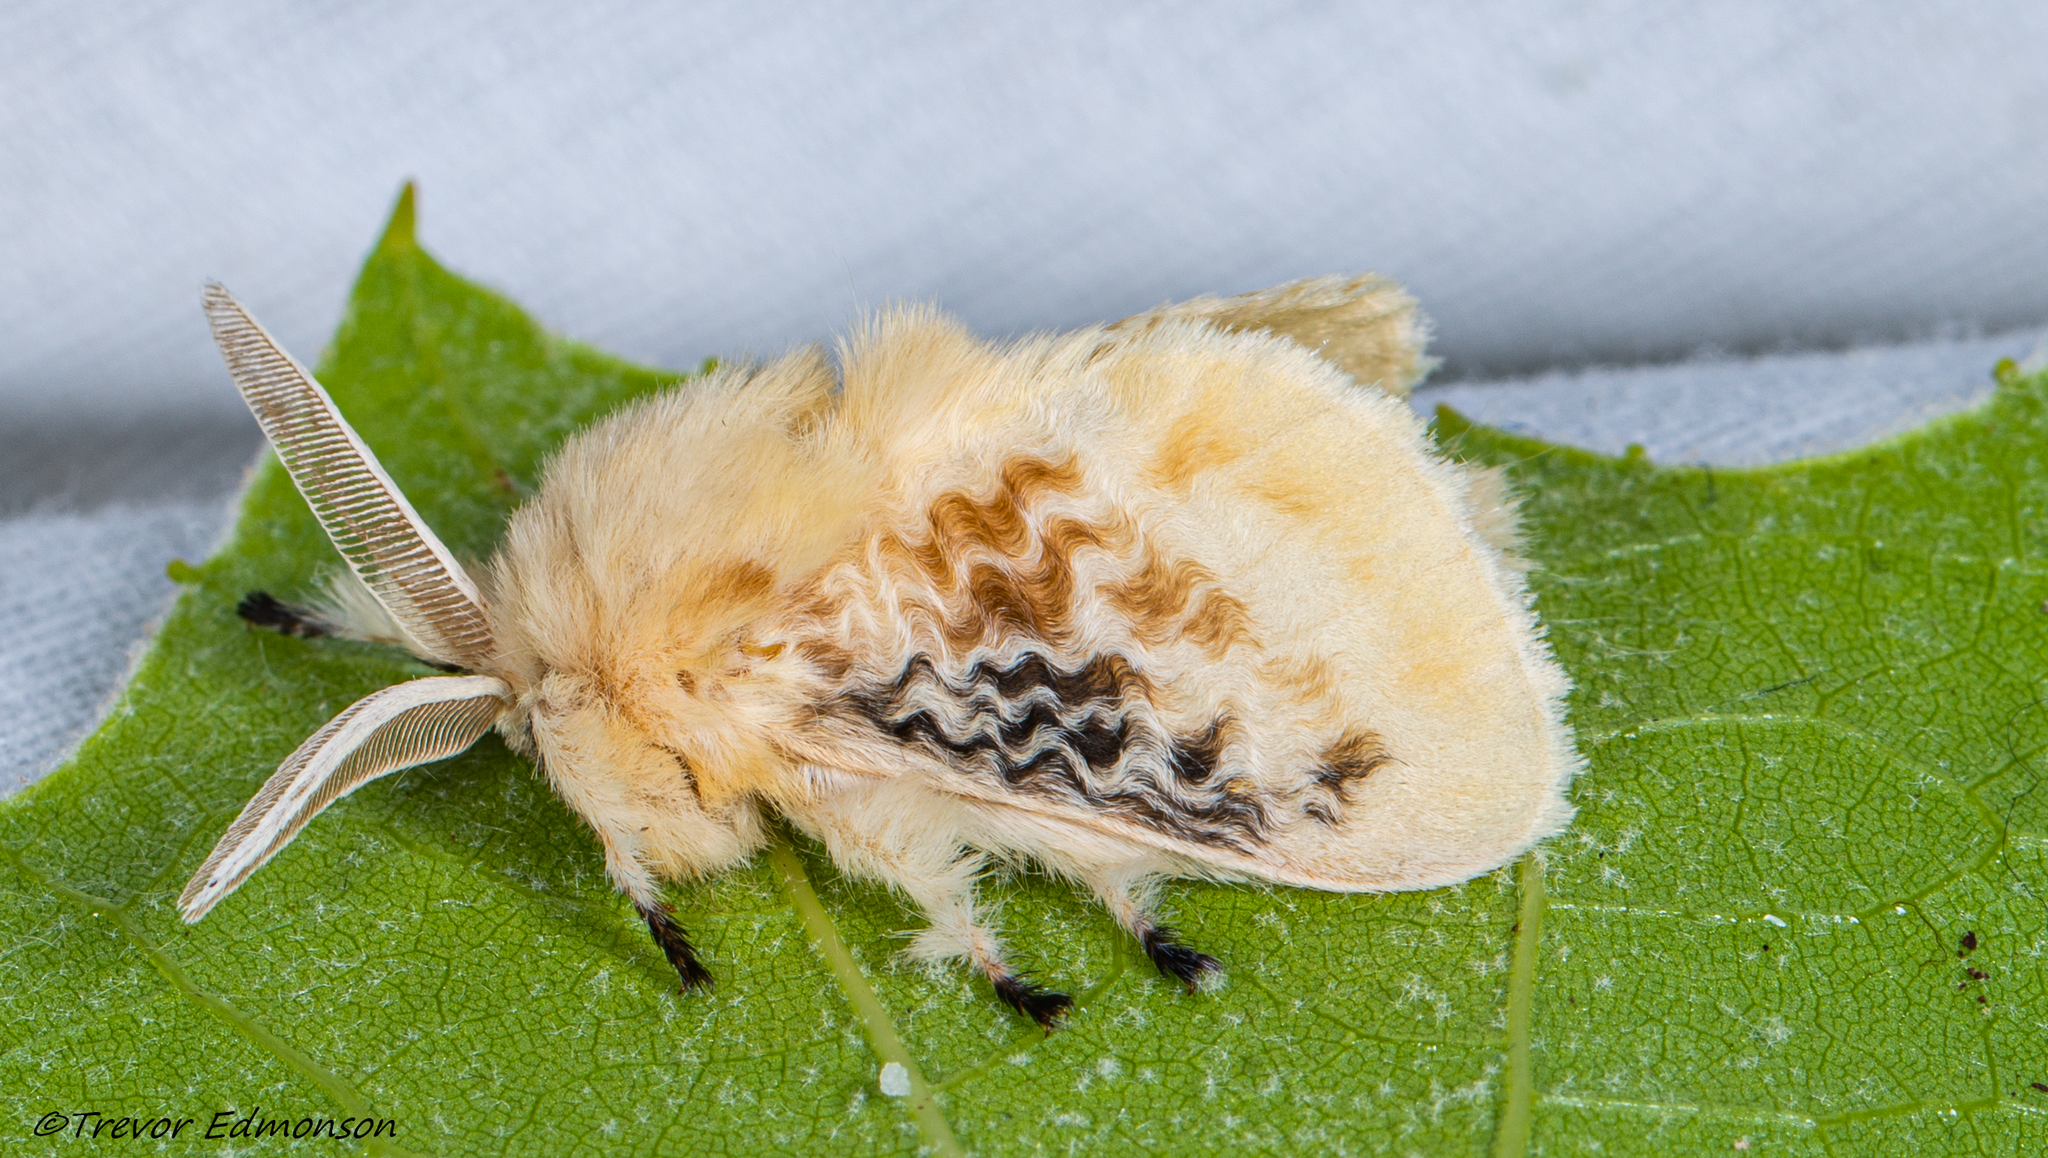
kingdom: Animalia
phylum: Arthropoda
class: Insecta
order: Lepidoptera
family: Megalopygidae
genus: Megalopyge
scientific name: Megalopyge crispata
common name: Black-waved flannel moth
